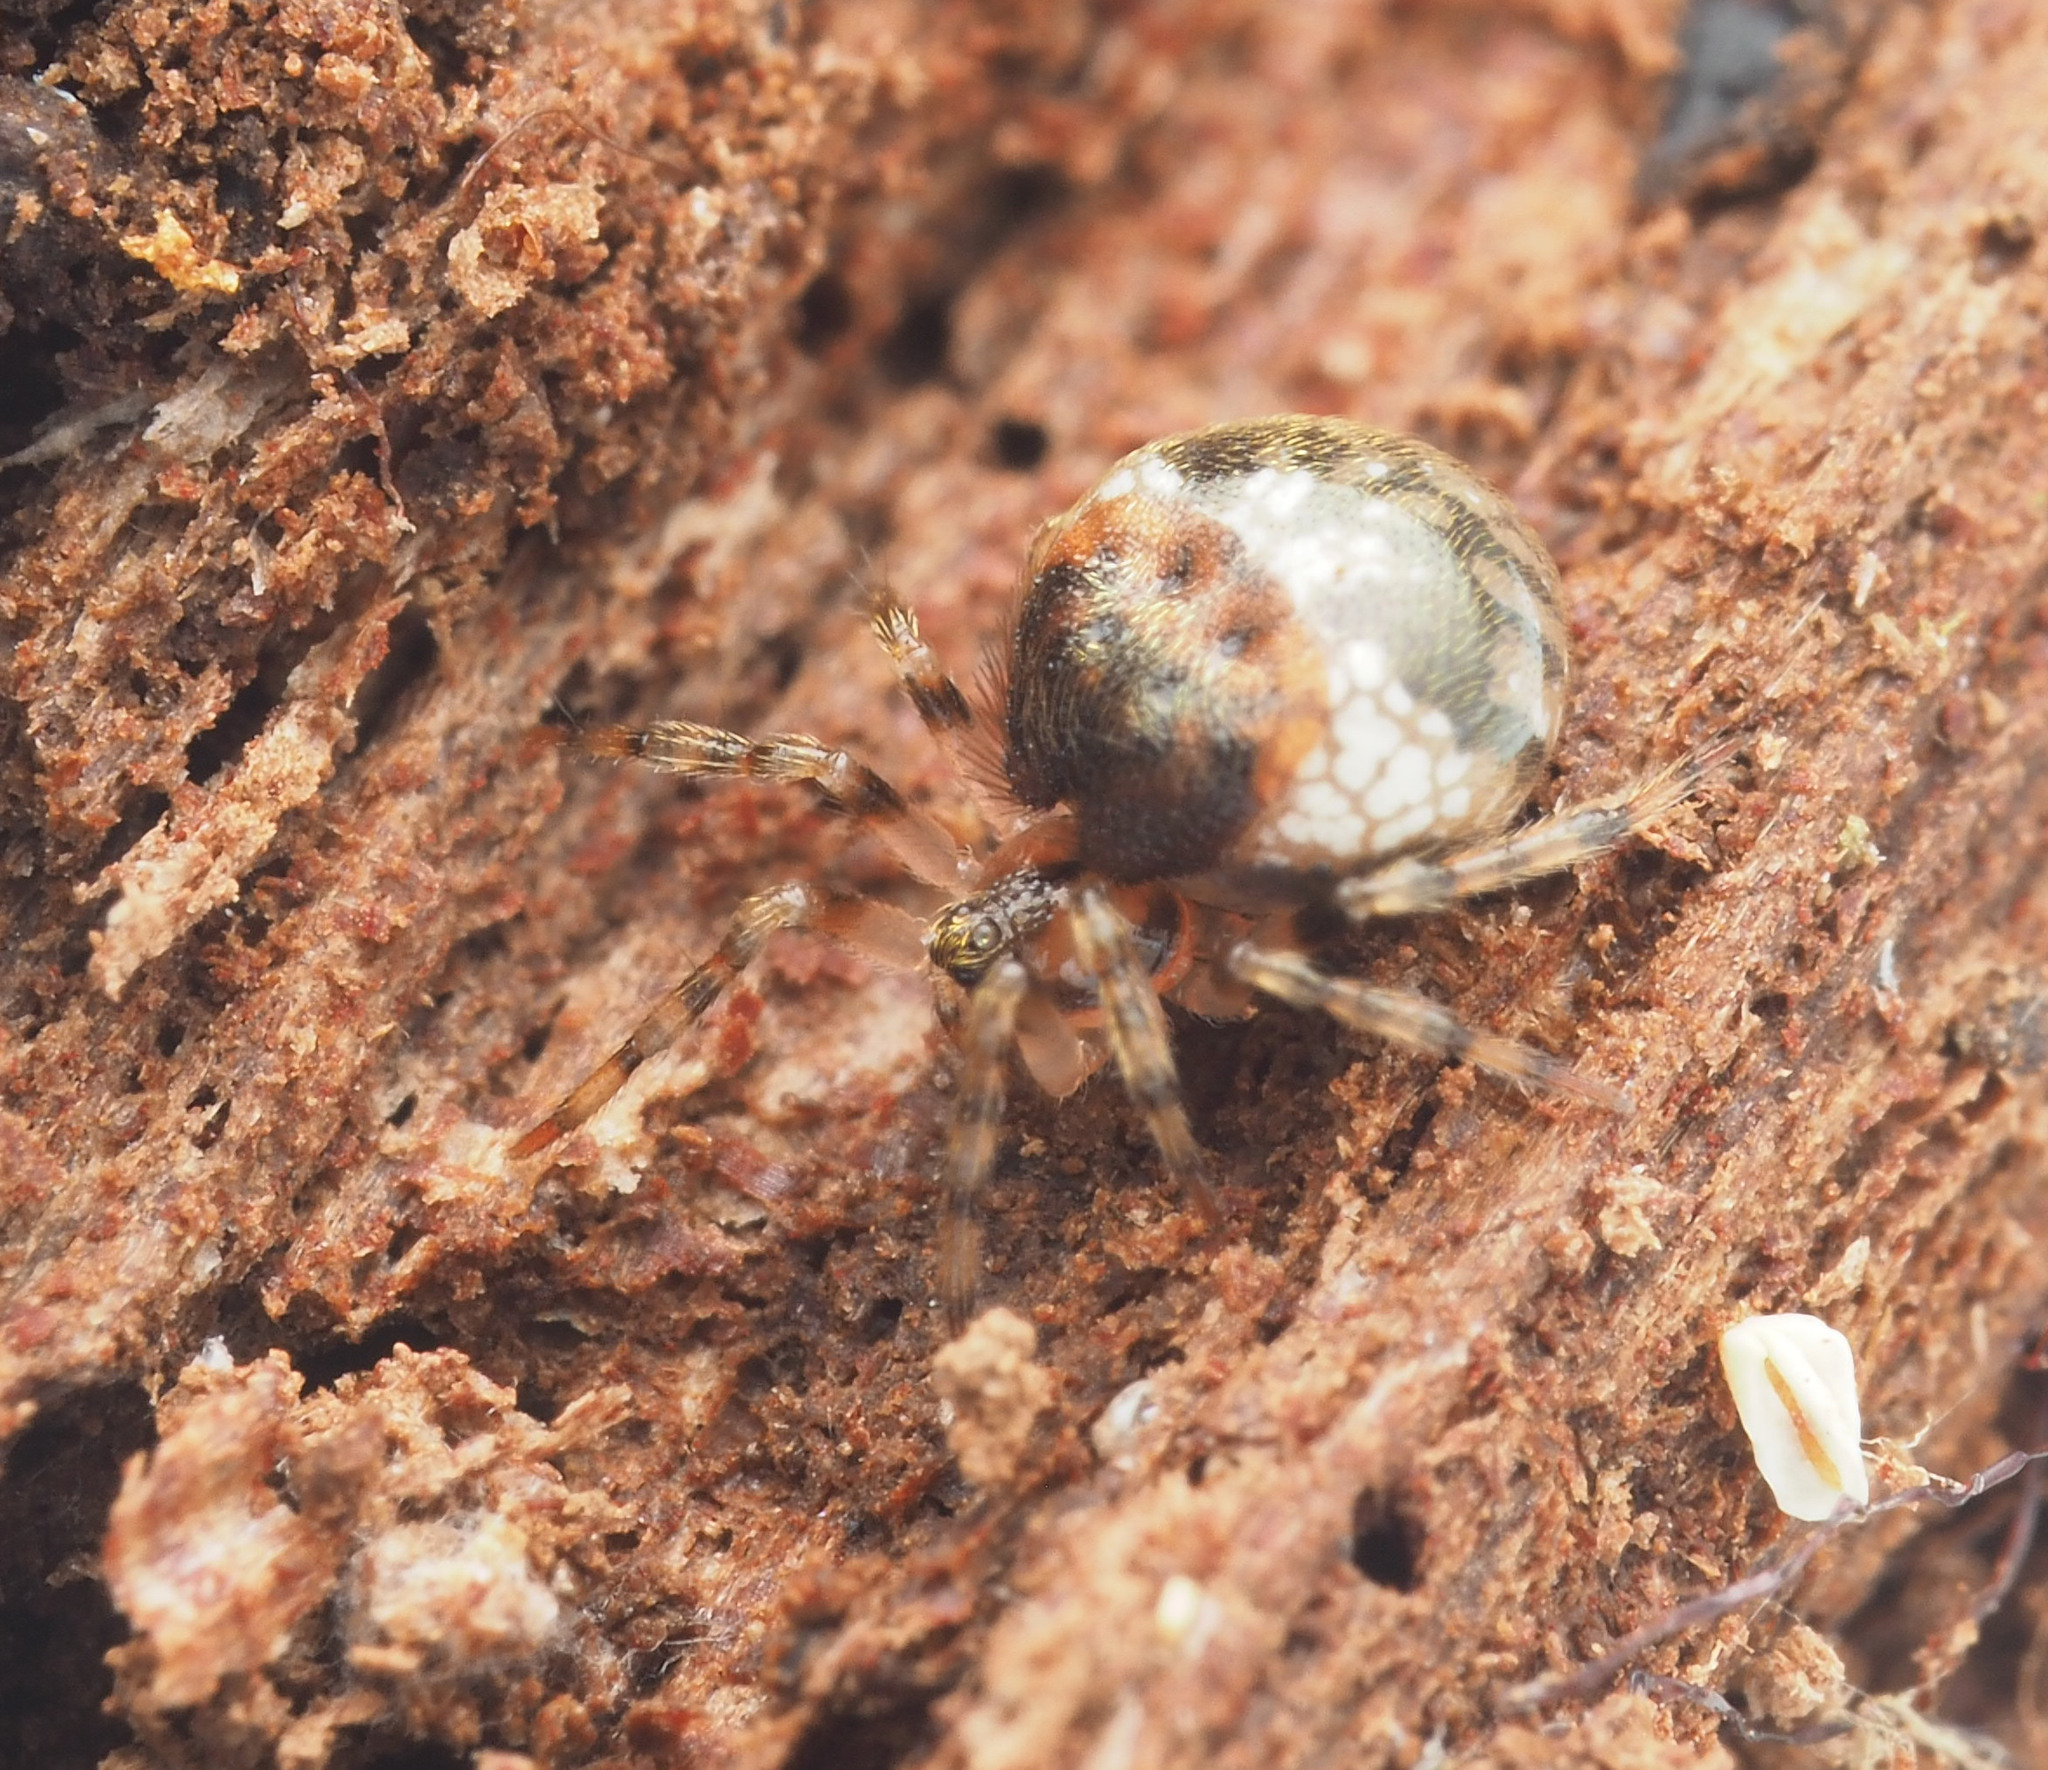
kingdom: Animalia
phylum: Arthropoda
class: Arachnida
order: Araneae
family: Theridiidae
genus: Dipoena
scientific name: Dipoena
